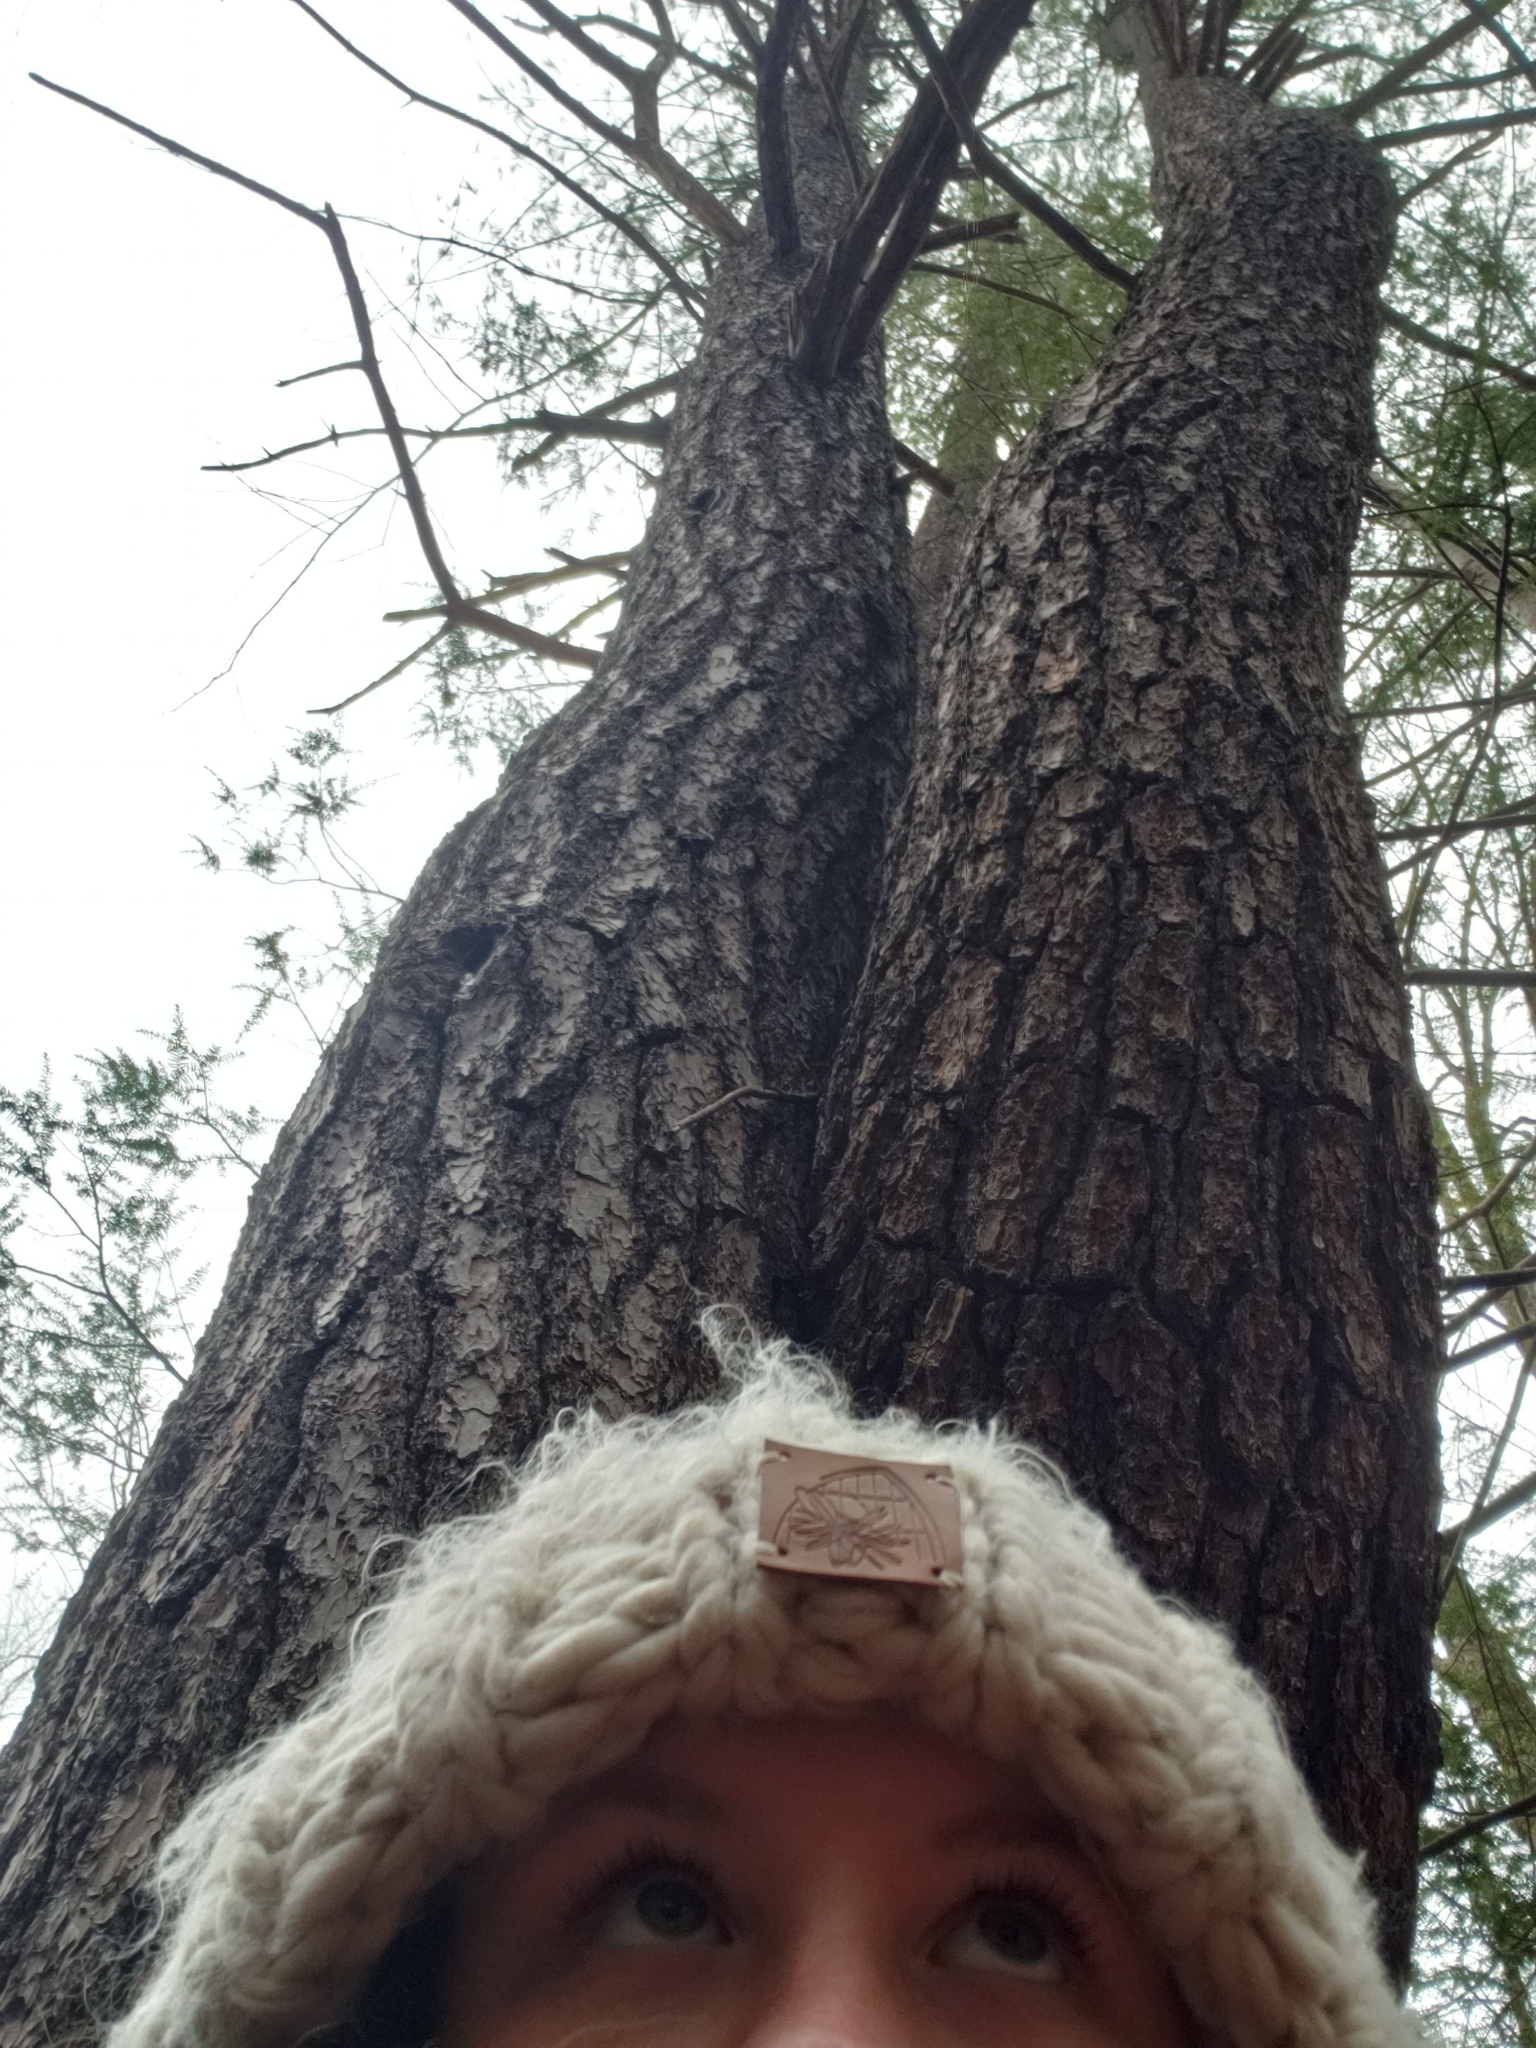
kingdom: Plantae
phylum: Tracheophyta
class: Pinopsida
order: Pinales
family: Pinaceae
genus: Pinus
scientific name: Pinus strobus
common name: Weymouth pine
